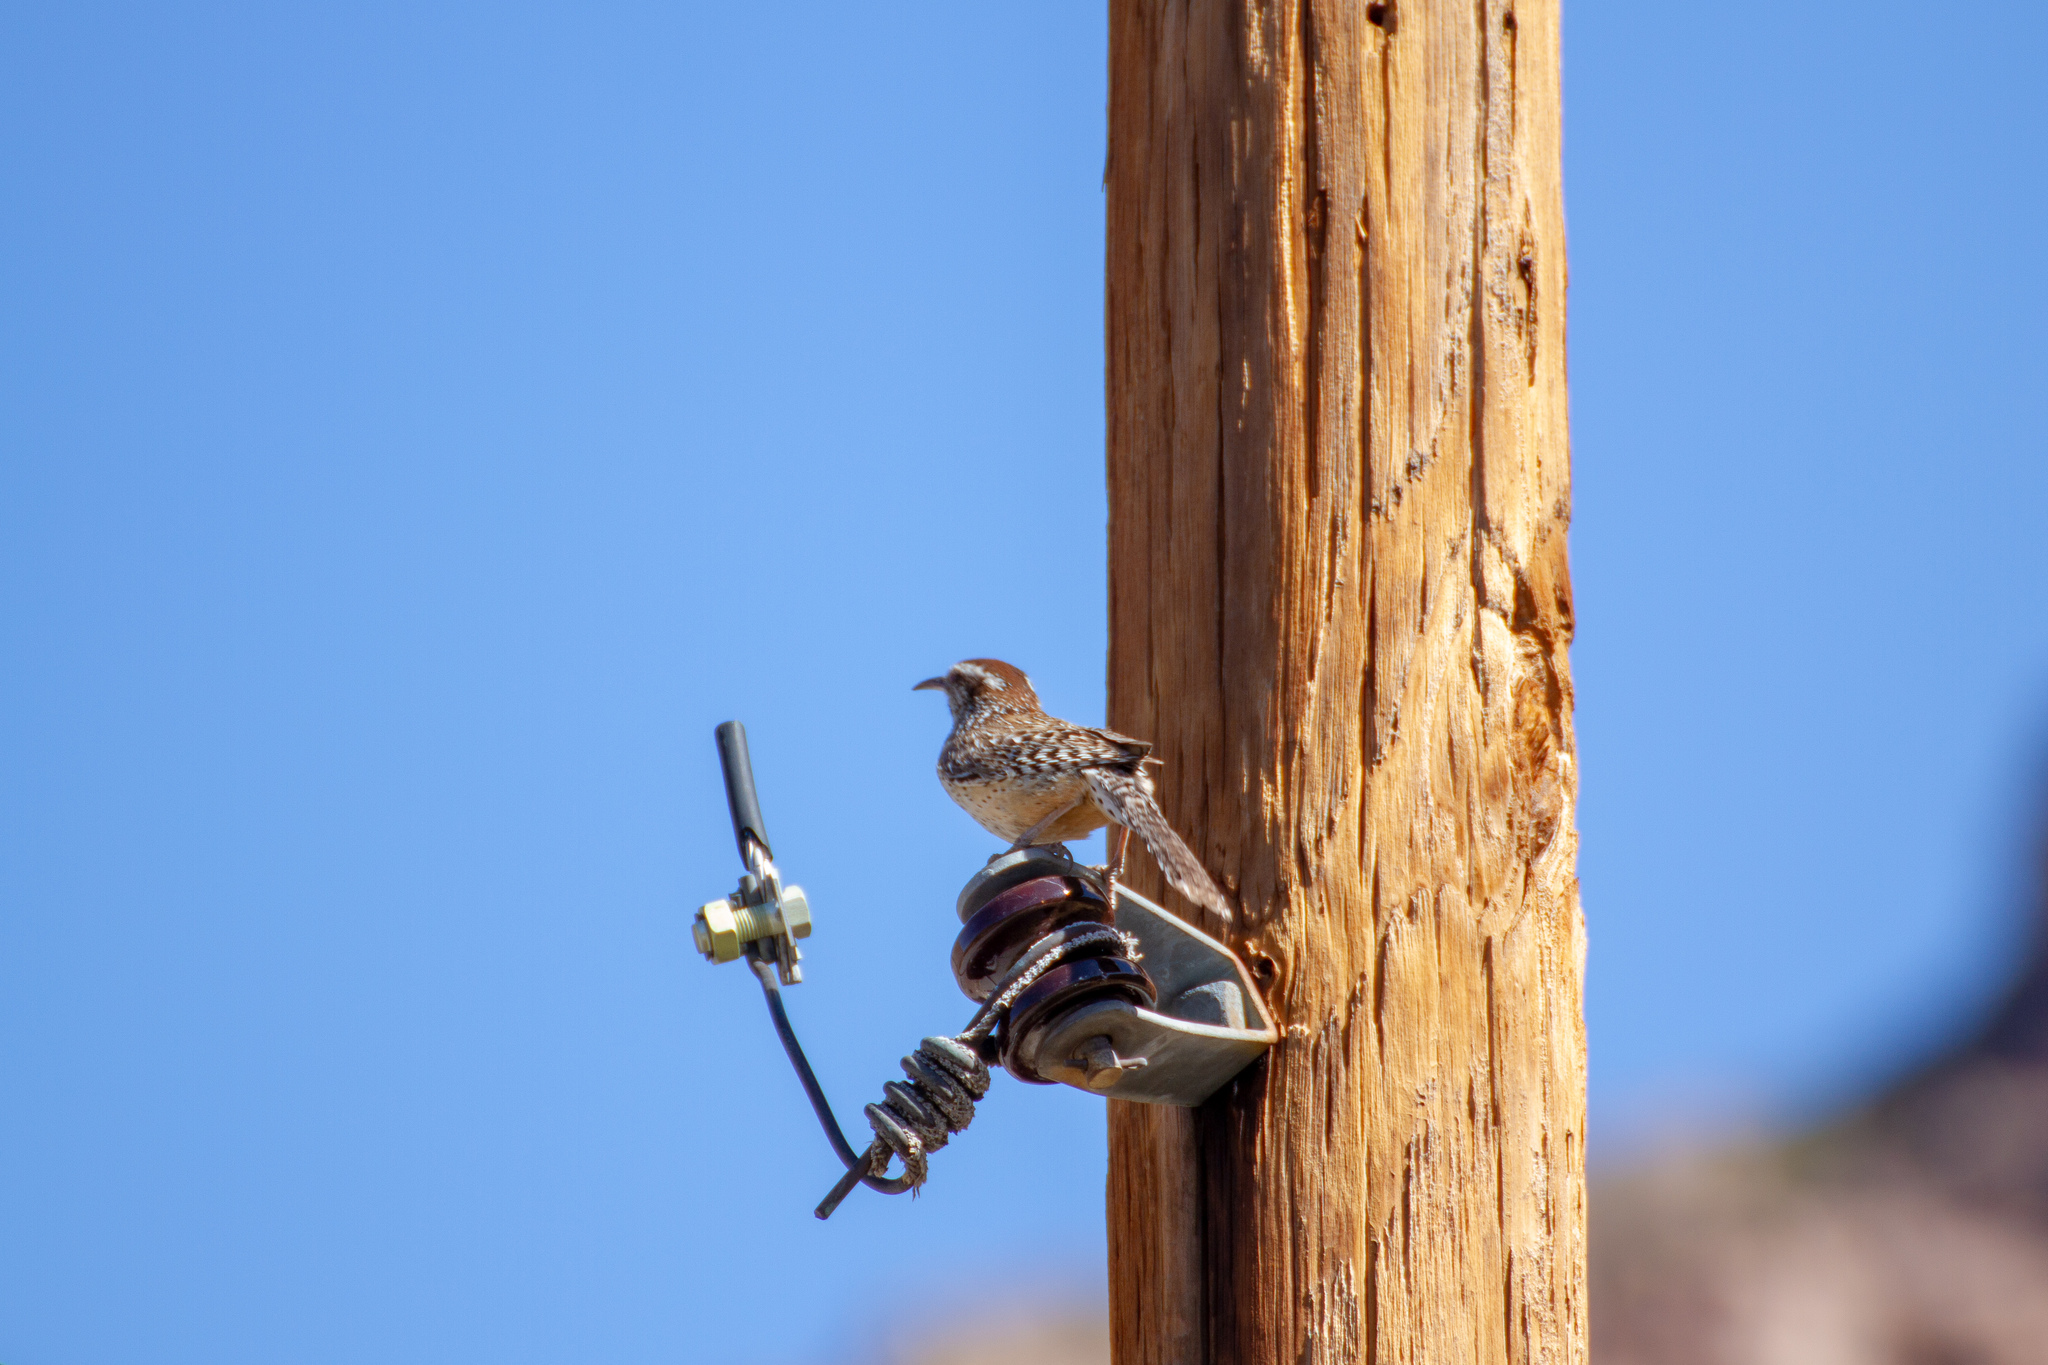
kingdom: Animalia
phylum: Chordata
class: Aves
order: Passeriformes
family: Troglodytidae
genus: Campylorhynchus
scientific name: Campylorhynchus brunneicapillus
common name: Cactus wren
